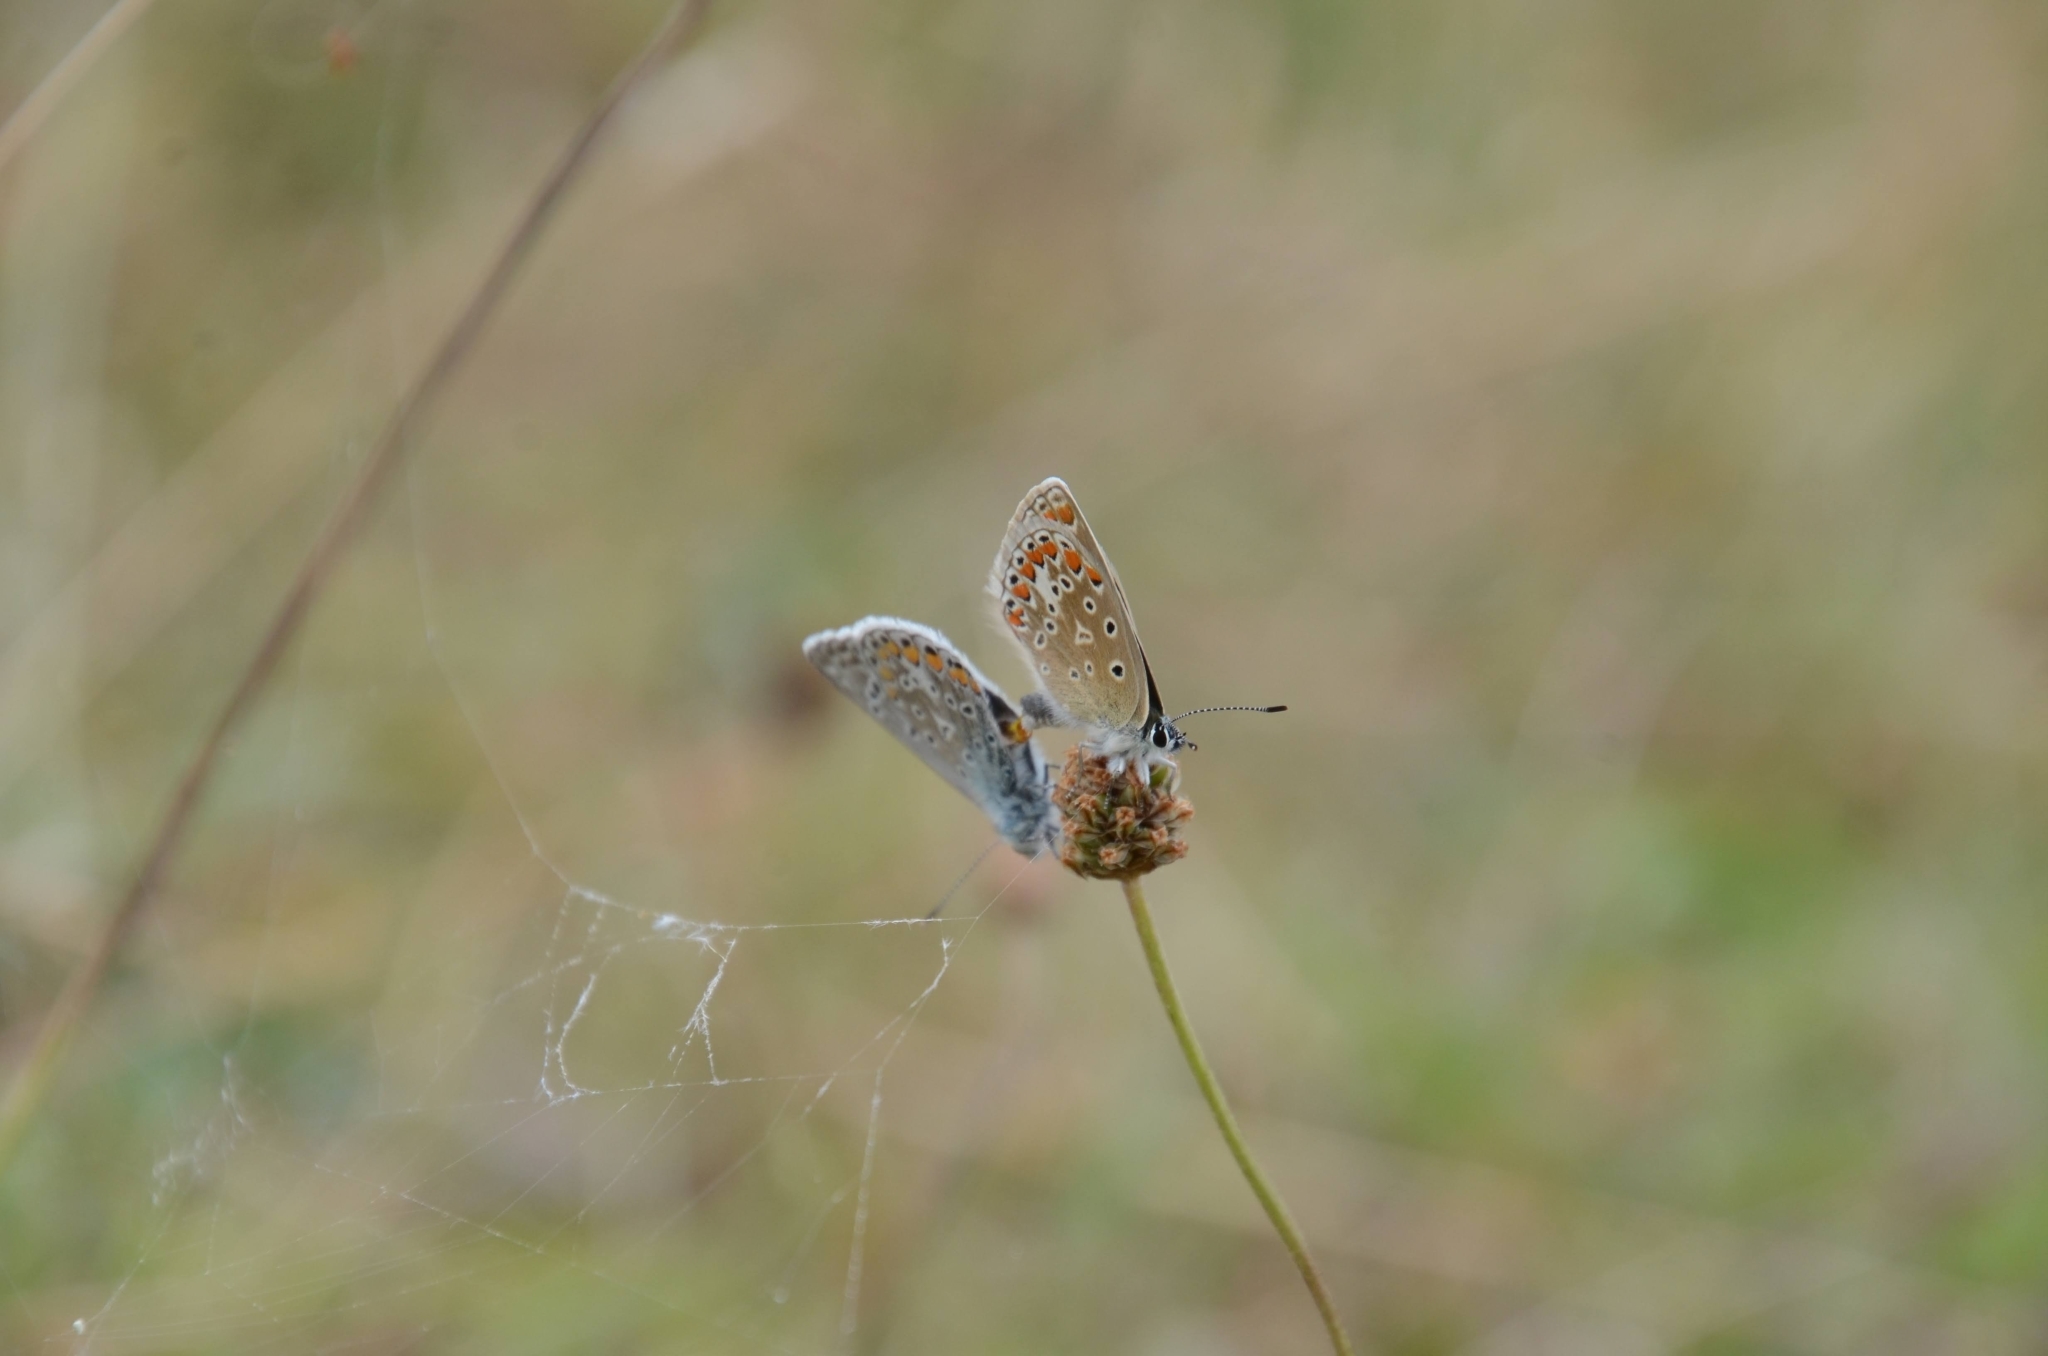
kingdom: Animalia
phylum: Arthropoda
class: Insecta
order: Lepidoptera
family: Lycaenidae
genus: Polyommatus
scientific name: Polyommatus icarus
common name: Common blue
